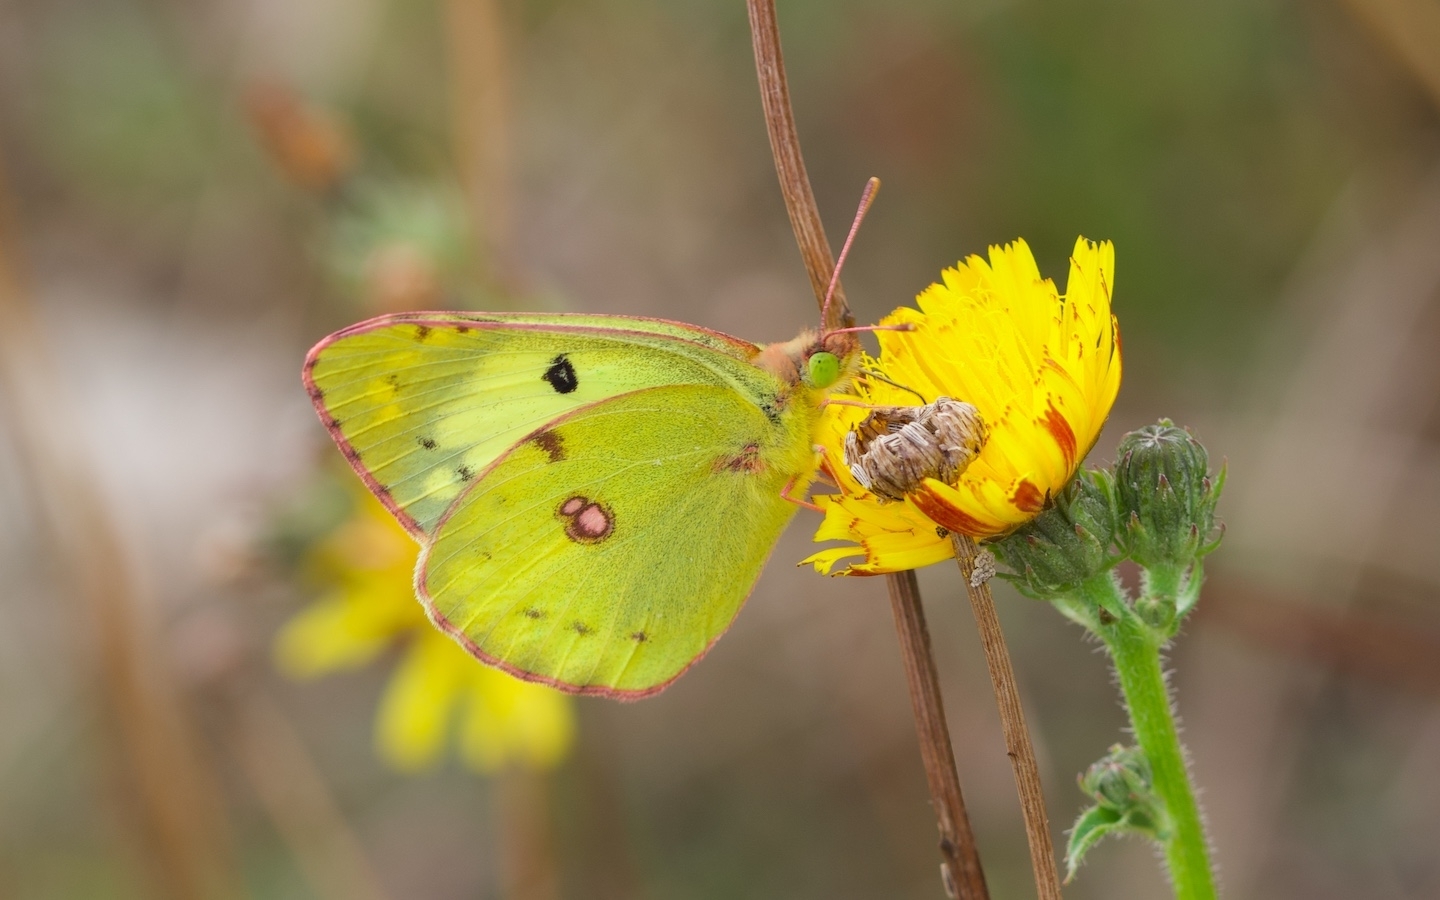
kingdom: Animalia
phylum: Arthropoda
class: Insecta
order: Lepidoptera
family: Pieridae
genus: Colias
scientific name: Colias hyale
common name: Pale clouded yellow
